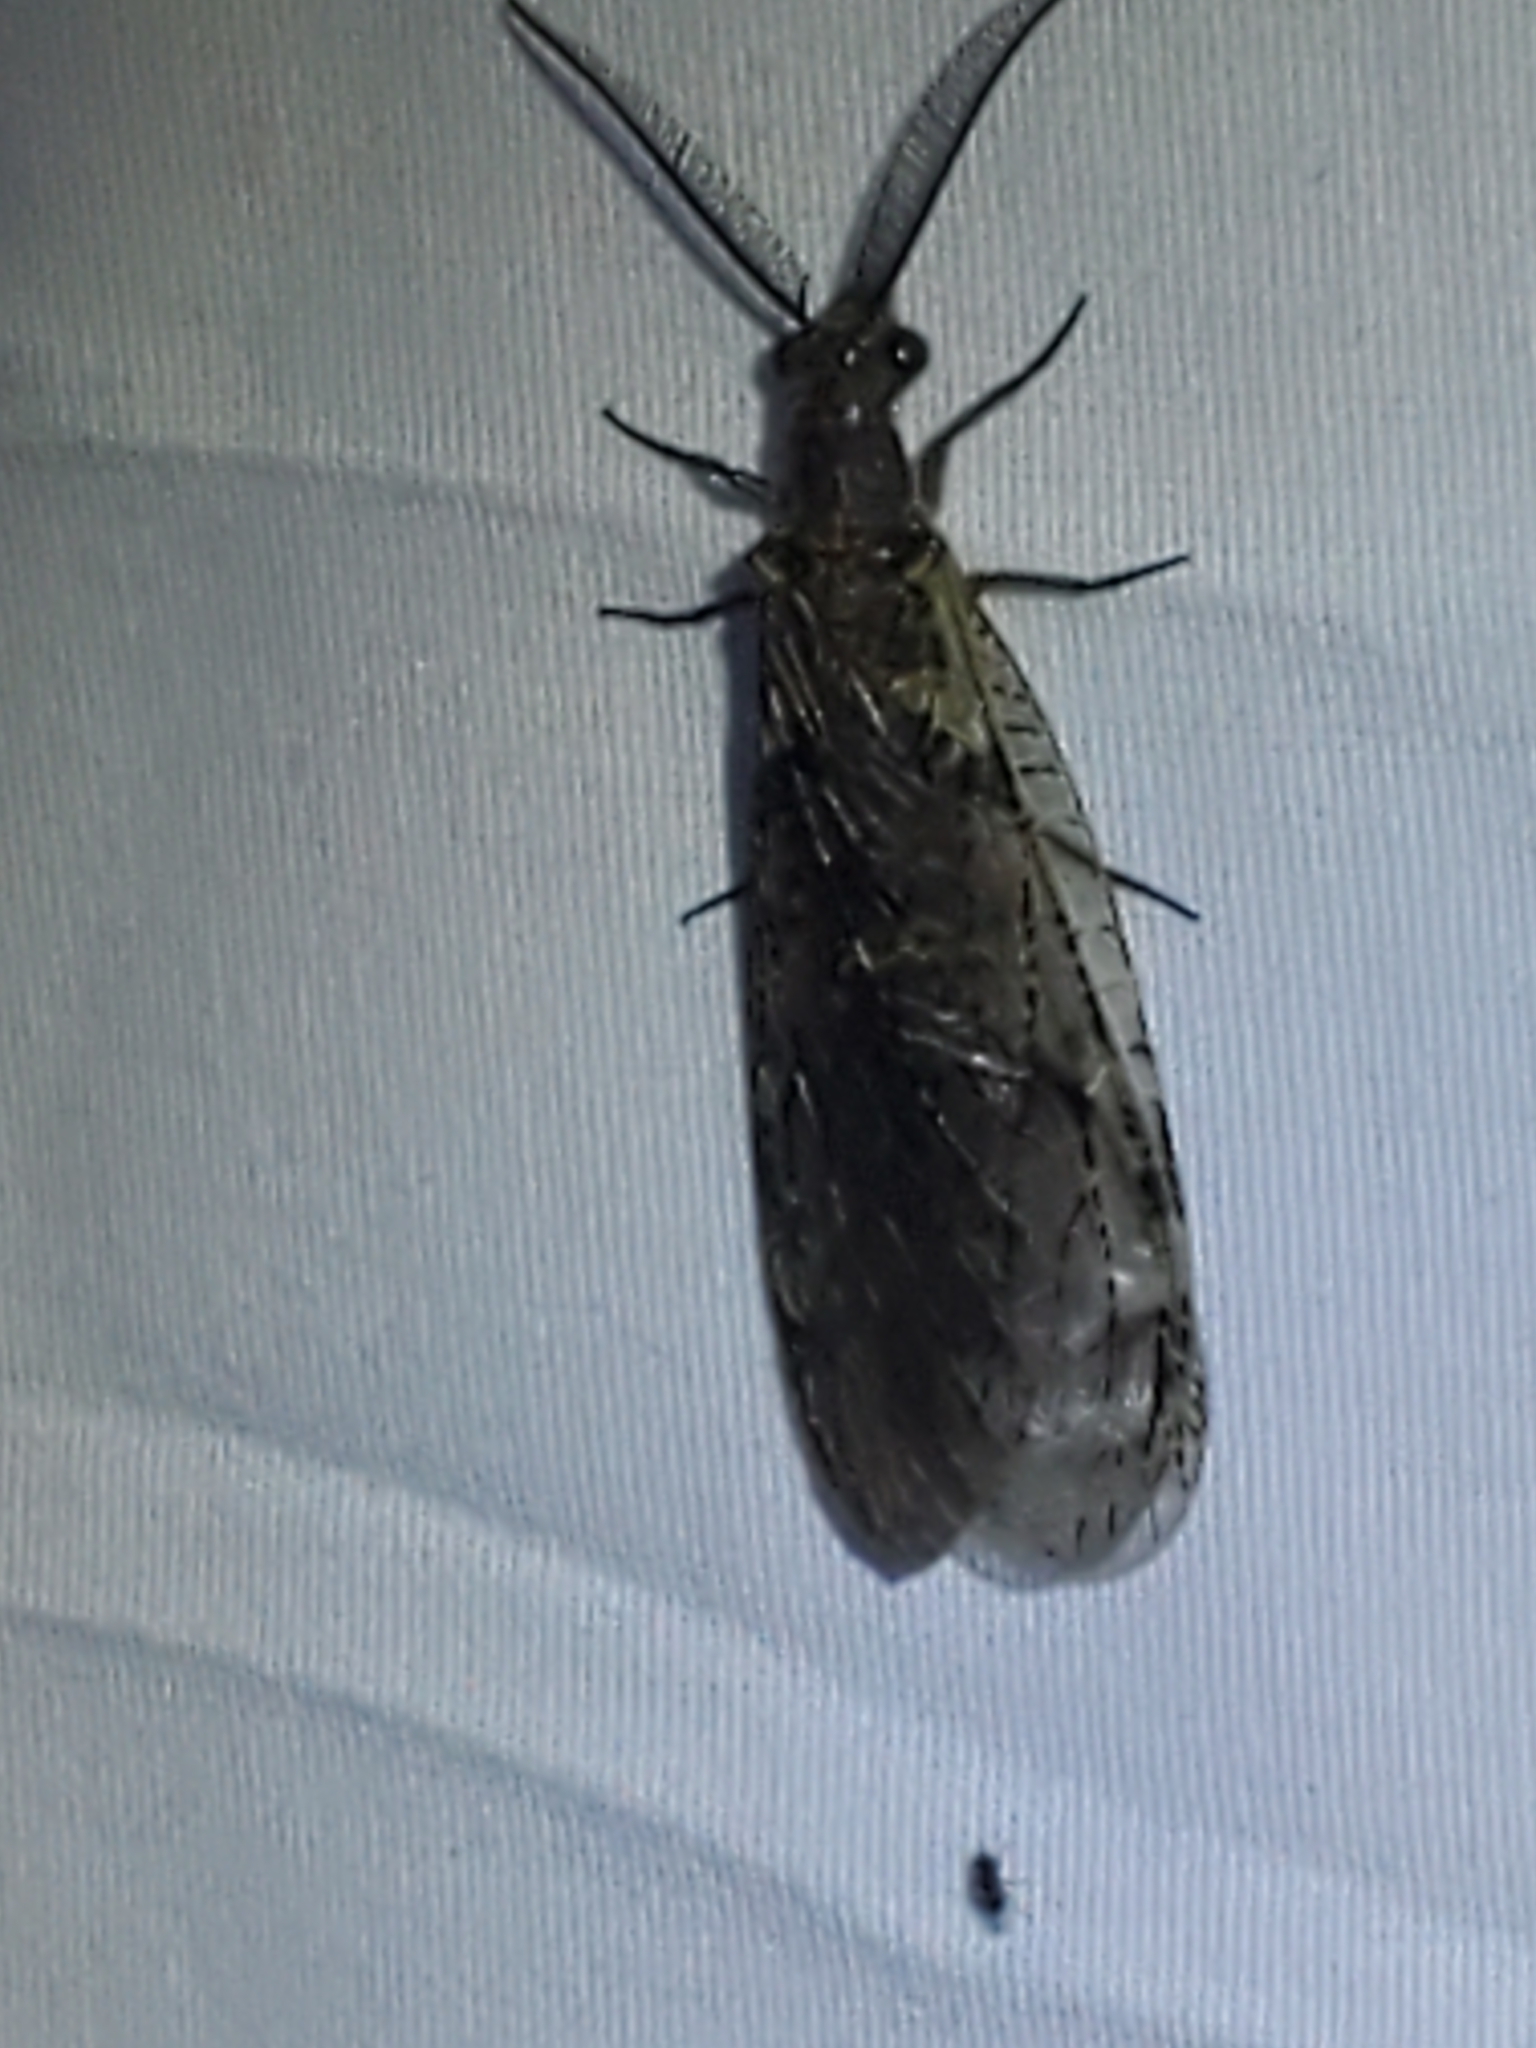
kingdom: Animalia
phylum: Arthropoda
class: Insecta
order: Megaloptera
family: Corydalidae
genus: Chauliodes
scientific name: Chauliodes rastricornis
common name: Spring fishfly
